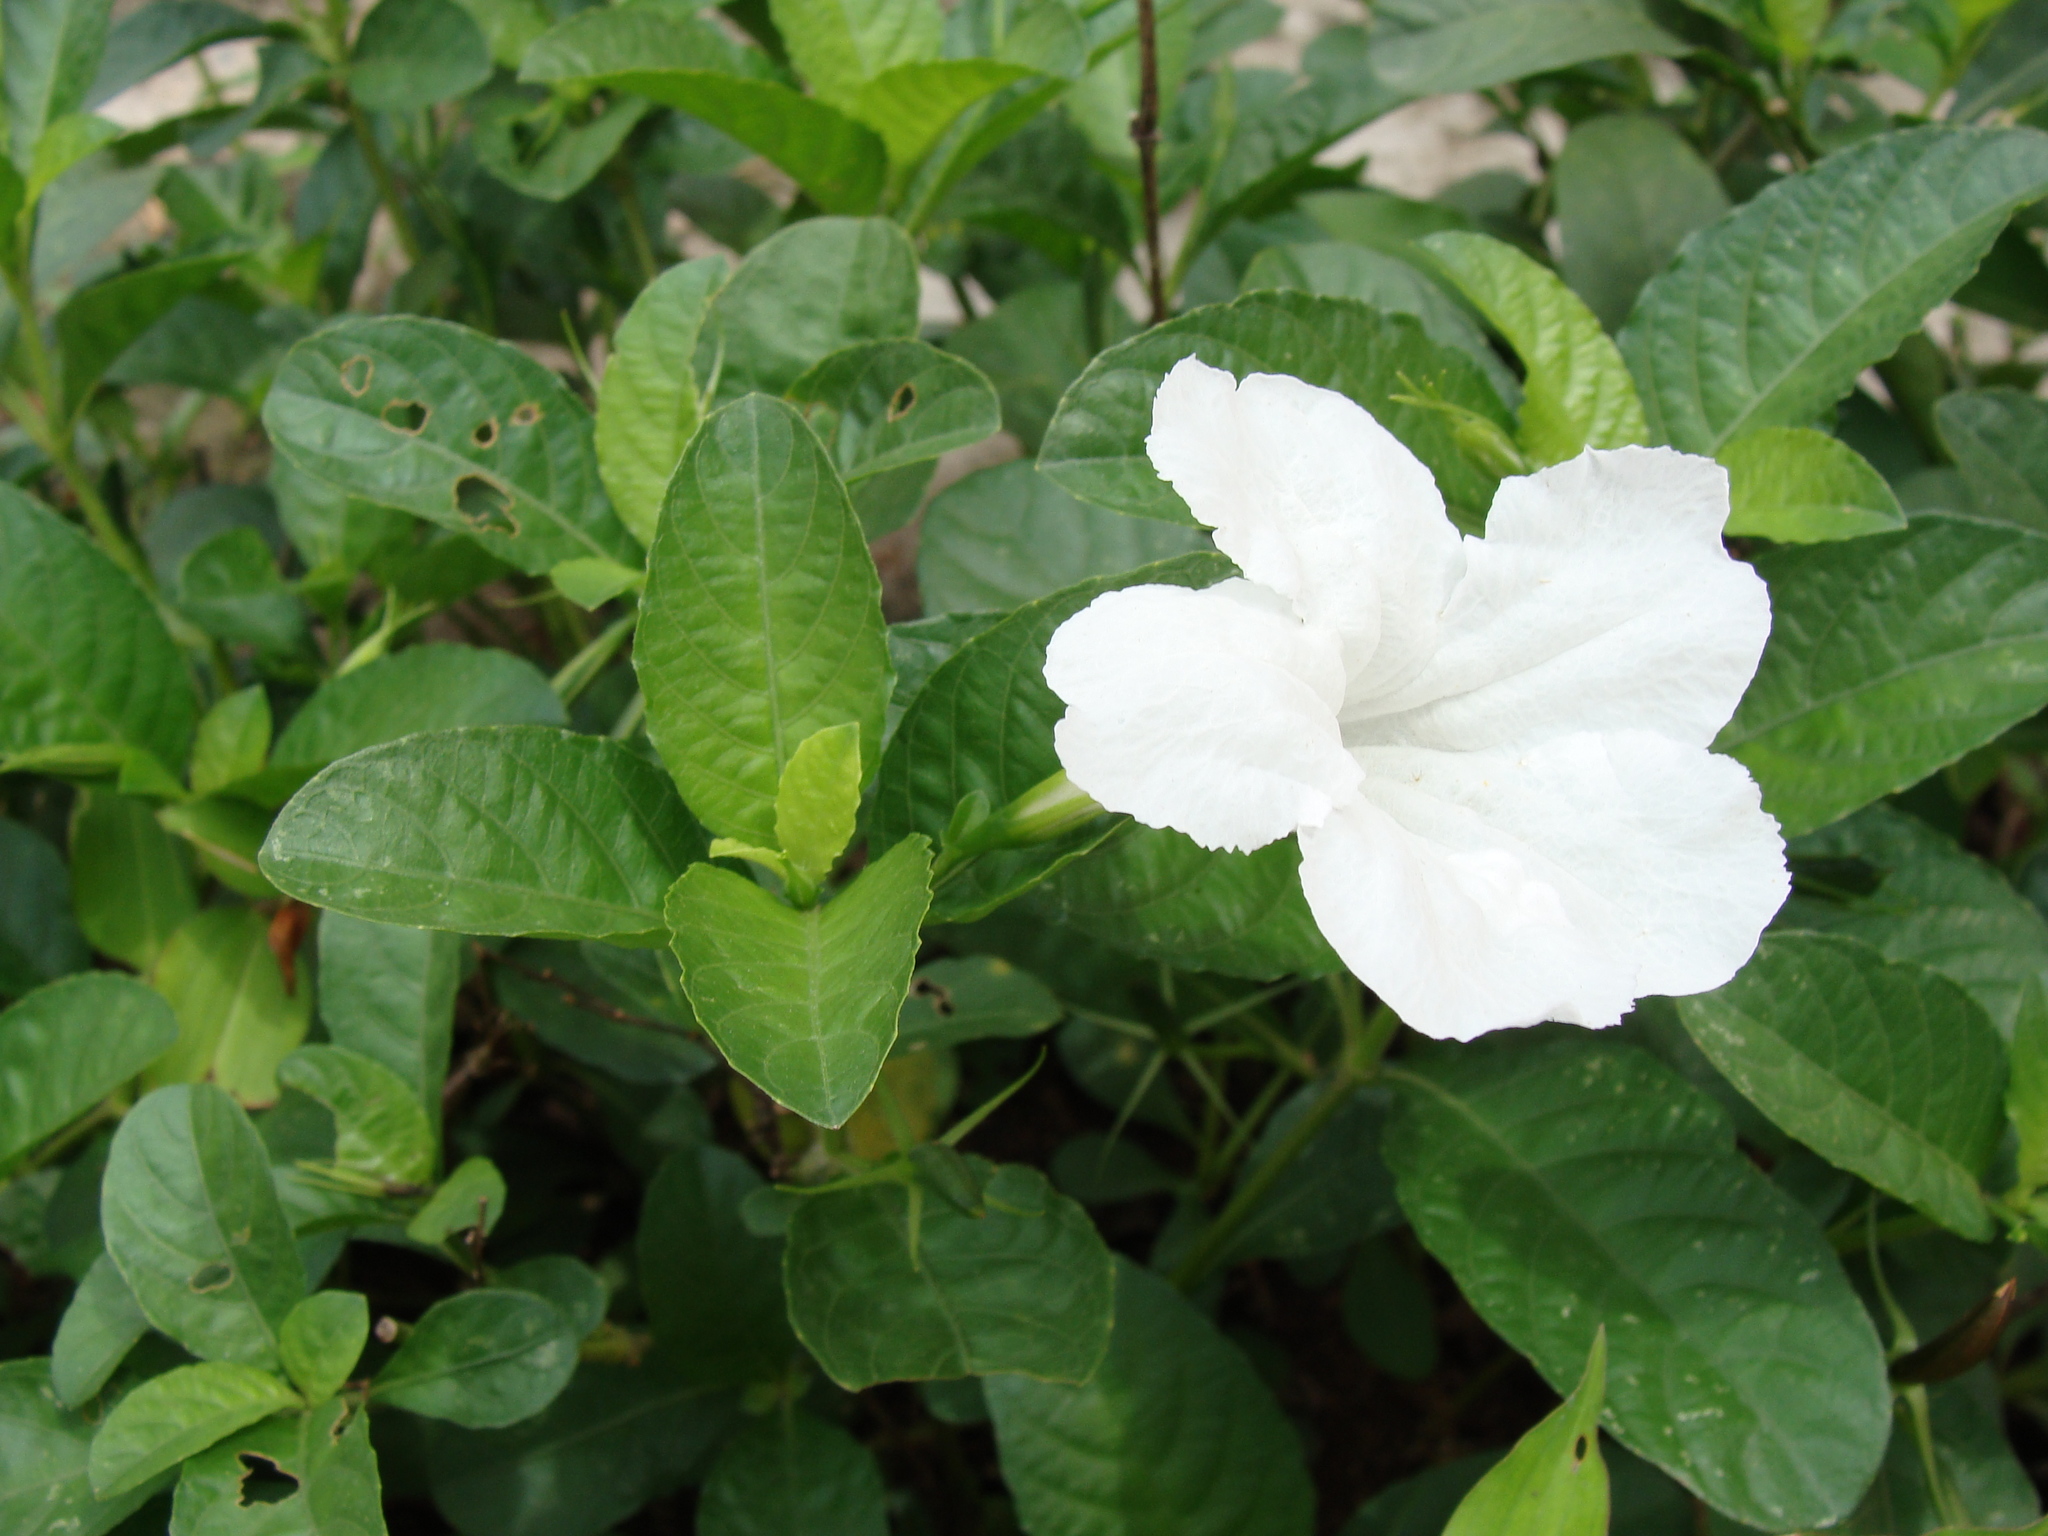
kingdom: Plantae
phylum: Tracheophyta
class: Magnoliopsida
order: Lamiales
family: Acanthaceae
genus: Ruellia
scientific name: Ruellia ciliatiflora
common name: Hairyflower wild petunia
